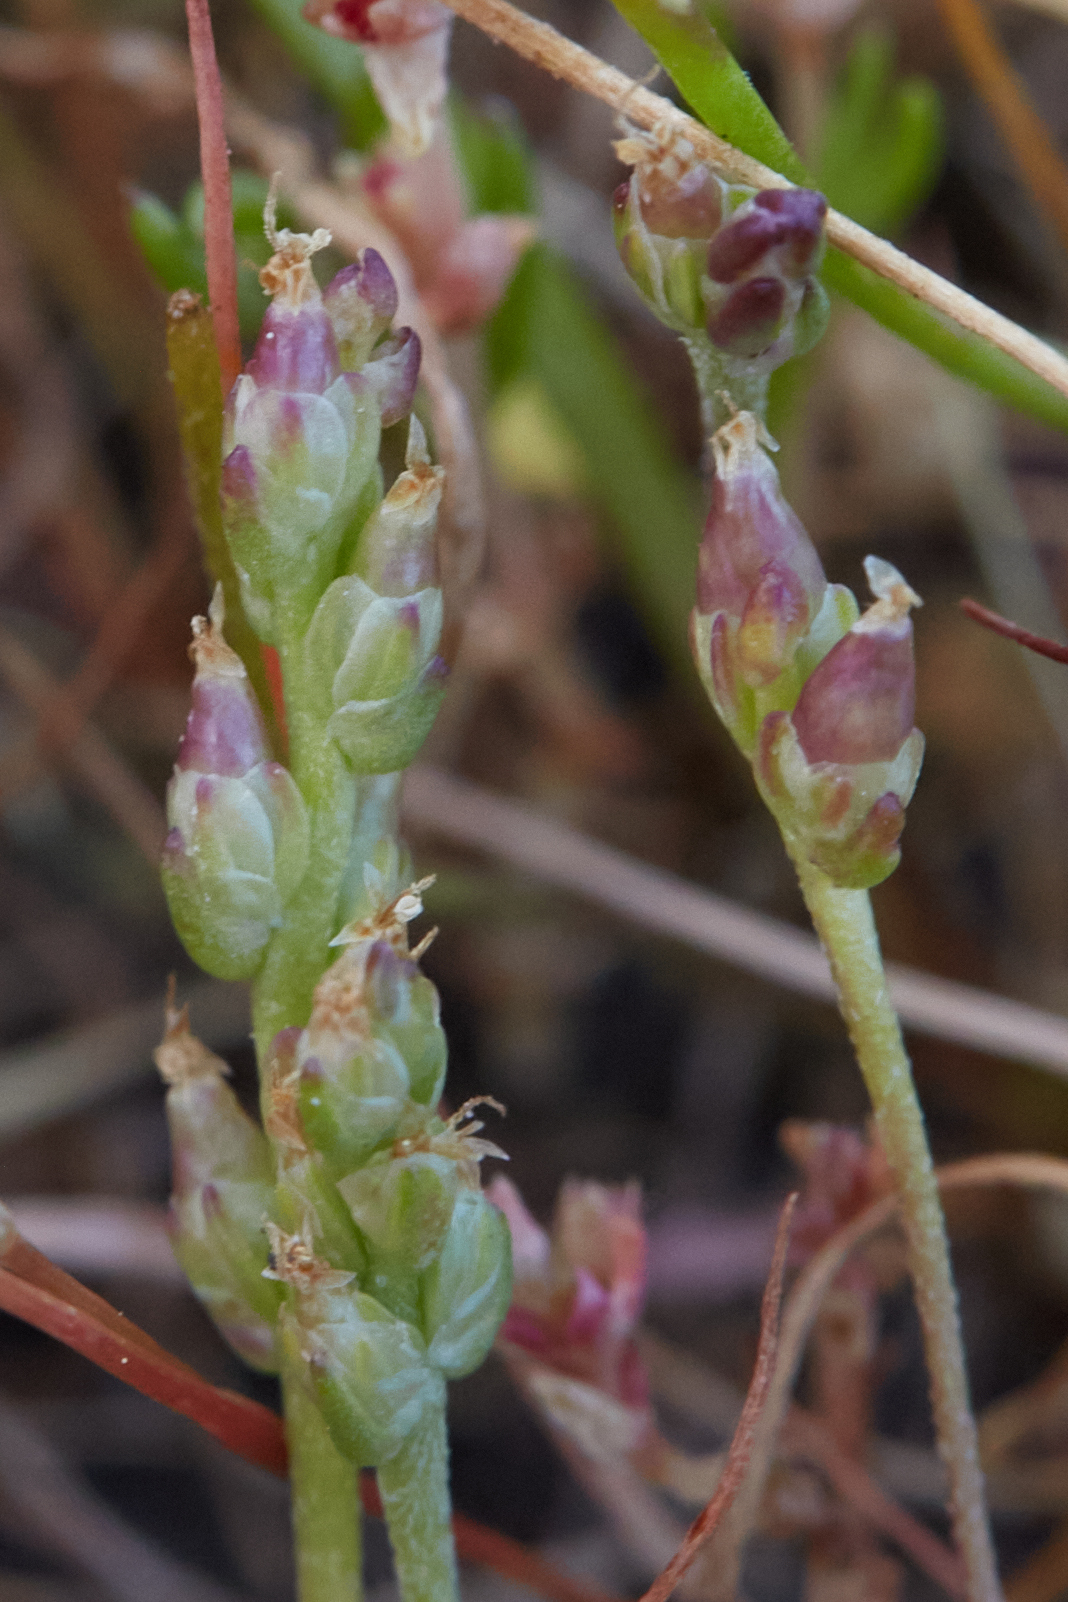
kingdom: Plantae
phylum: Tracheophyta
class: Magnoliopsida
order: Lamiales
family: Plantaginaceae
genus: Plantago
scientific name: Plantago elongata
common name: Linear-leaved plantain
